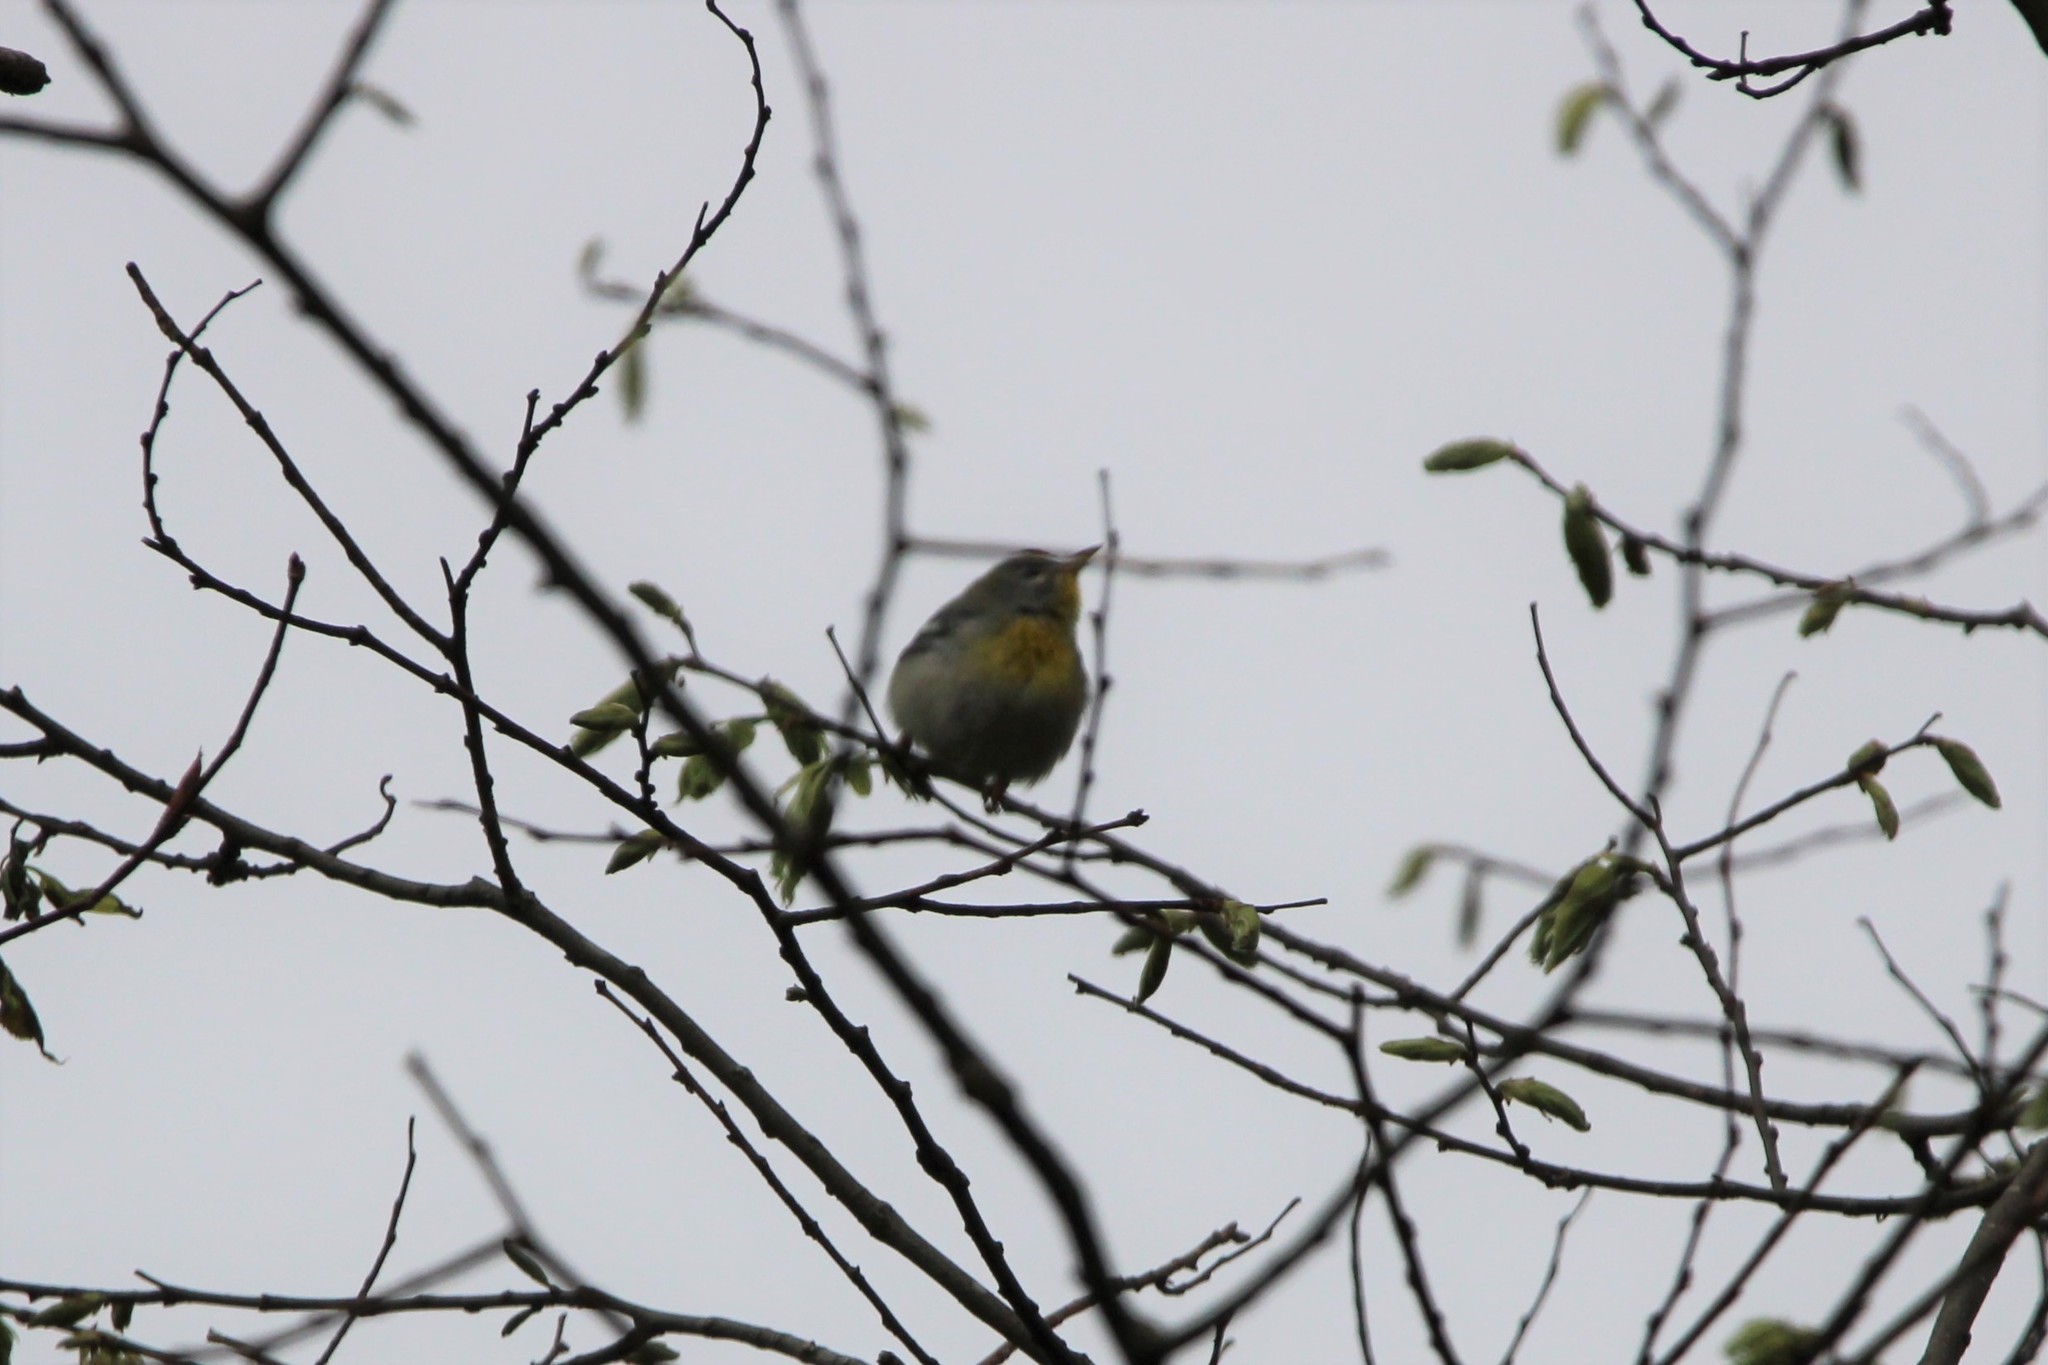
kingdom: Animalia
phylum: Chordata
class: Aves
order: Passeriformes
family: Parulidae
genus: Setophaga
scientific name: Setophaga americana
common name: Northern parula
